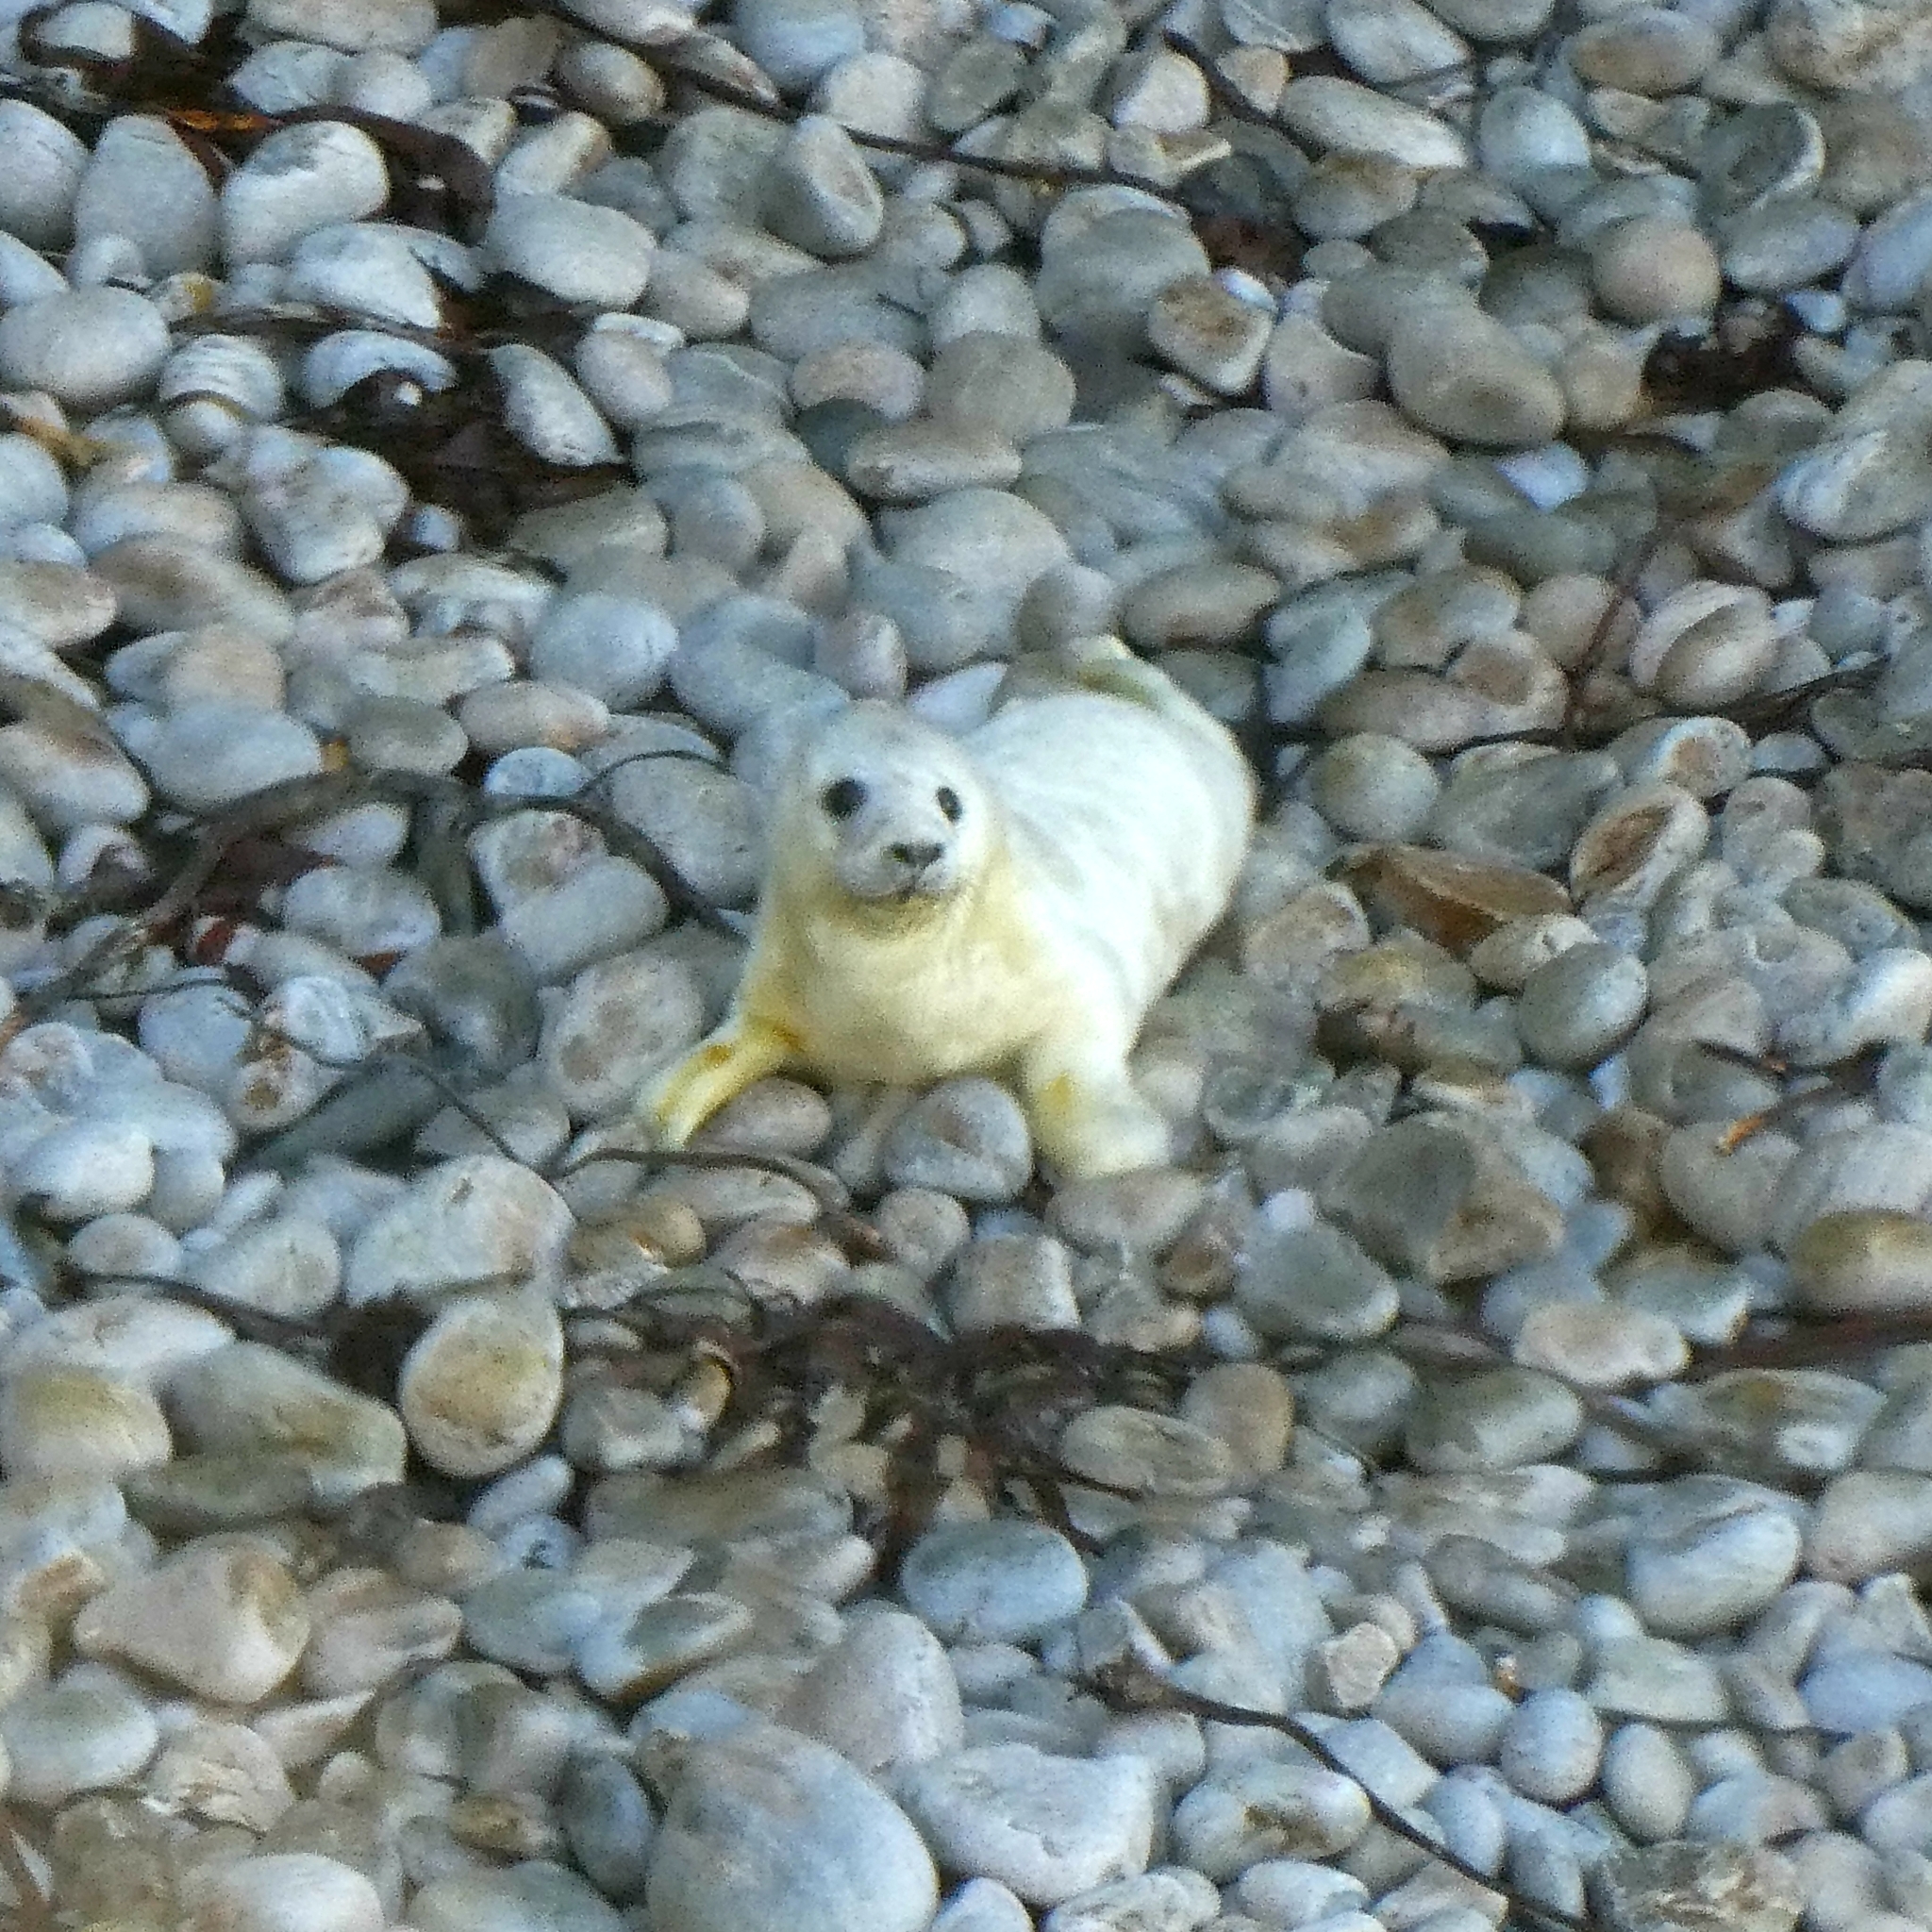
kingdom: Animalia
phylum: Chordata
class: Mammalia
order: Carnivora
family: Phocidae
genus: Halichoerus
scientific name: Halichoerus grypus
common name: Grey seal
